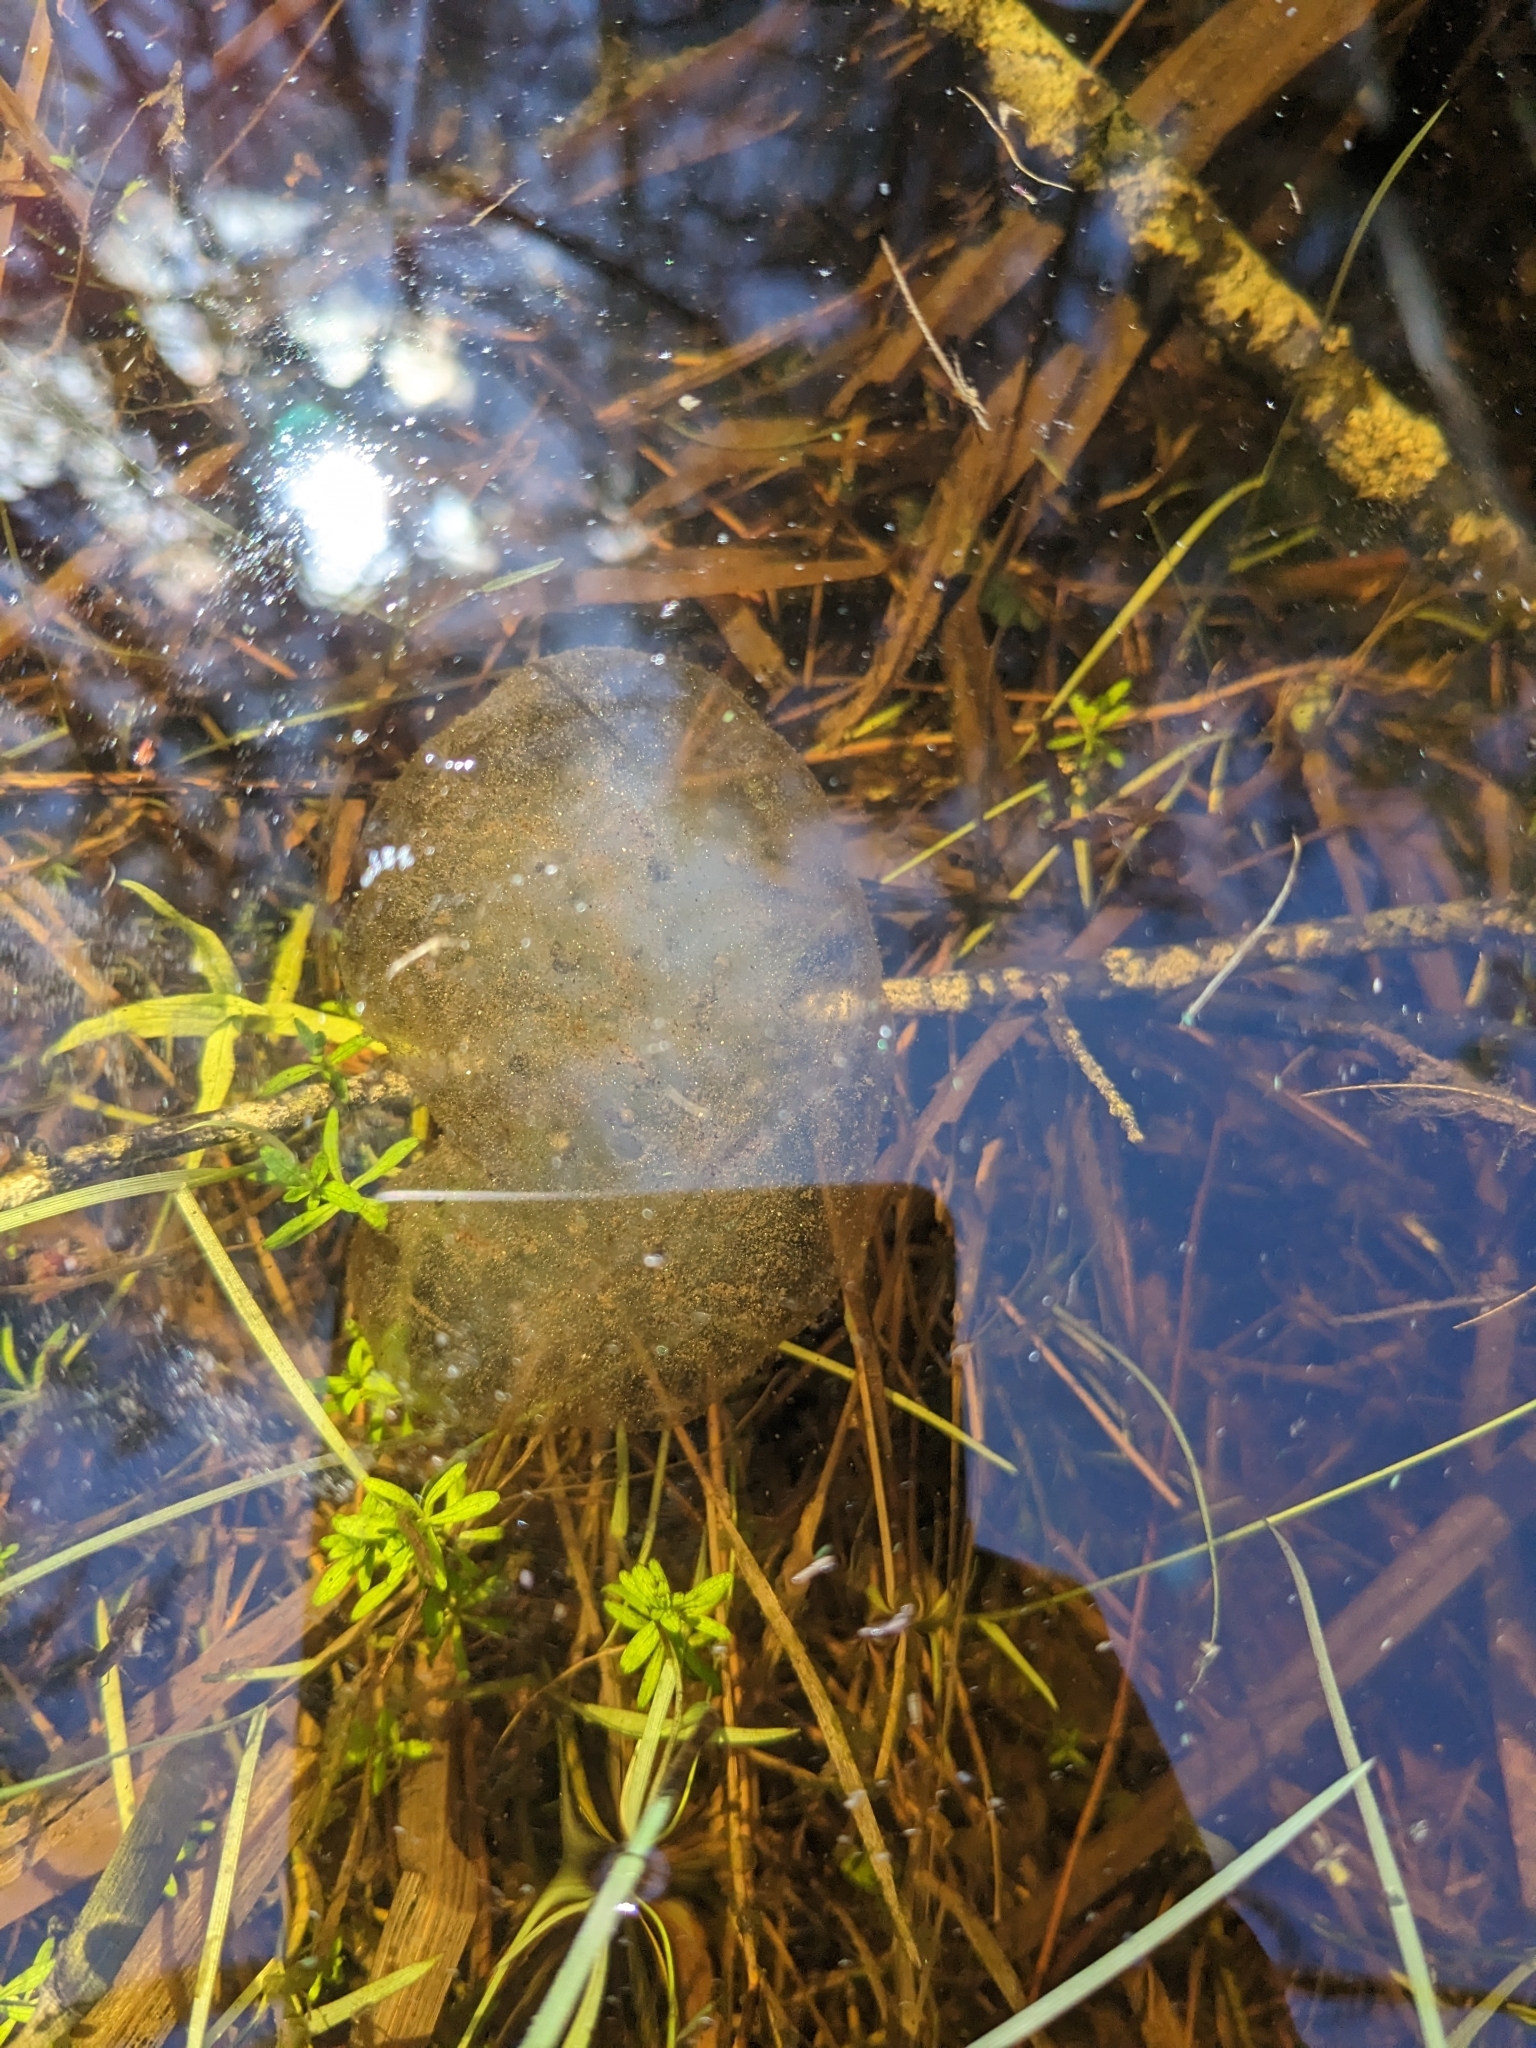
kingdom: Animalia
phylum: Chordata
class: Amphibia
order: Caudata
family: Ambystomatidae
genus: Ambystoma
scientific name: Ambystoma maculatum
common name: Spotted salamander
